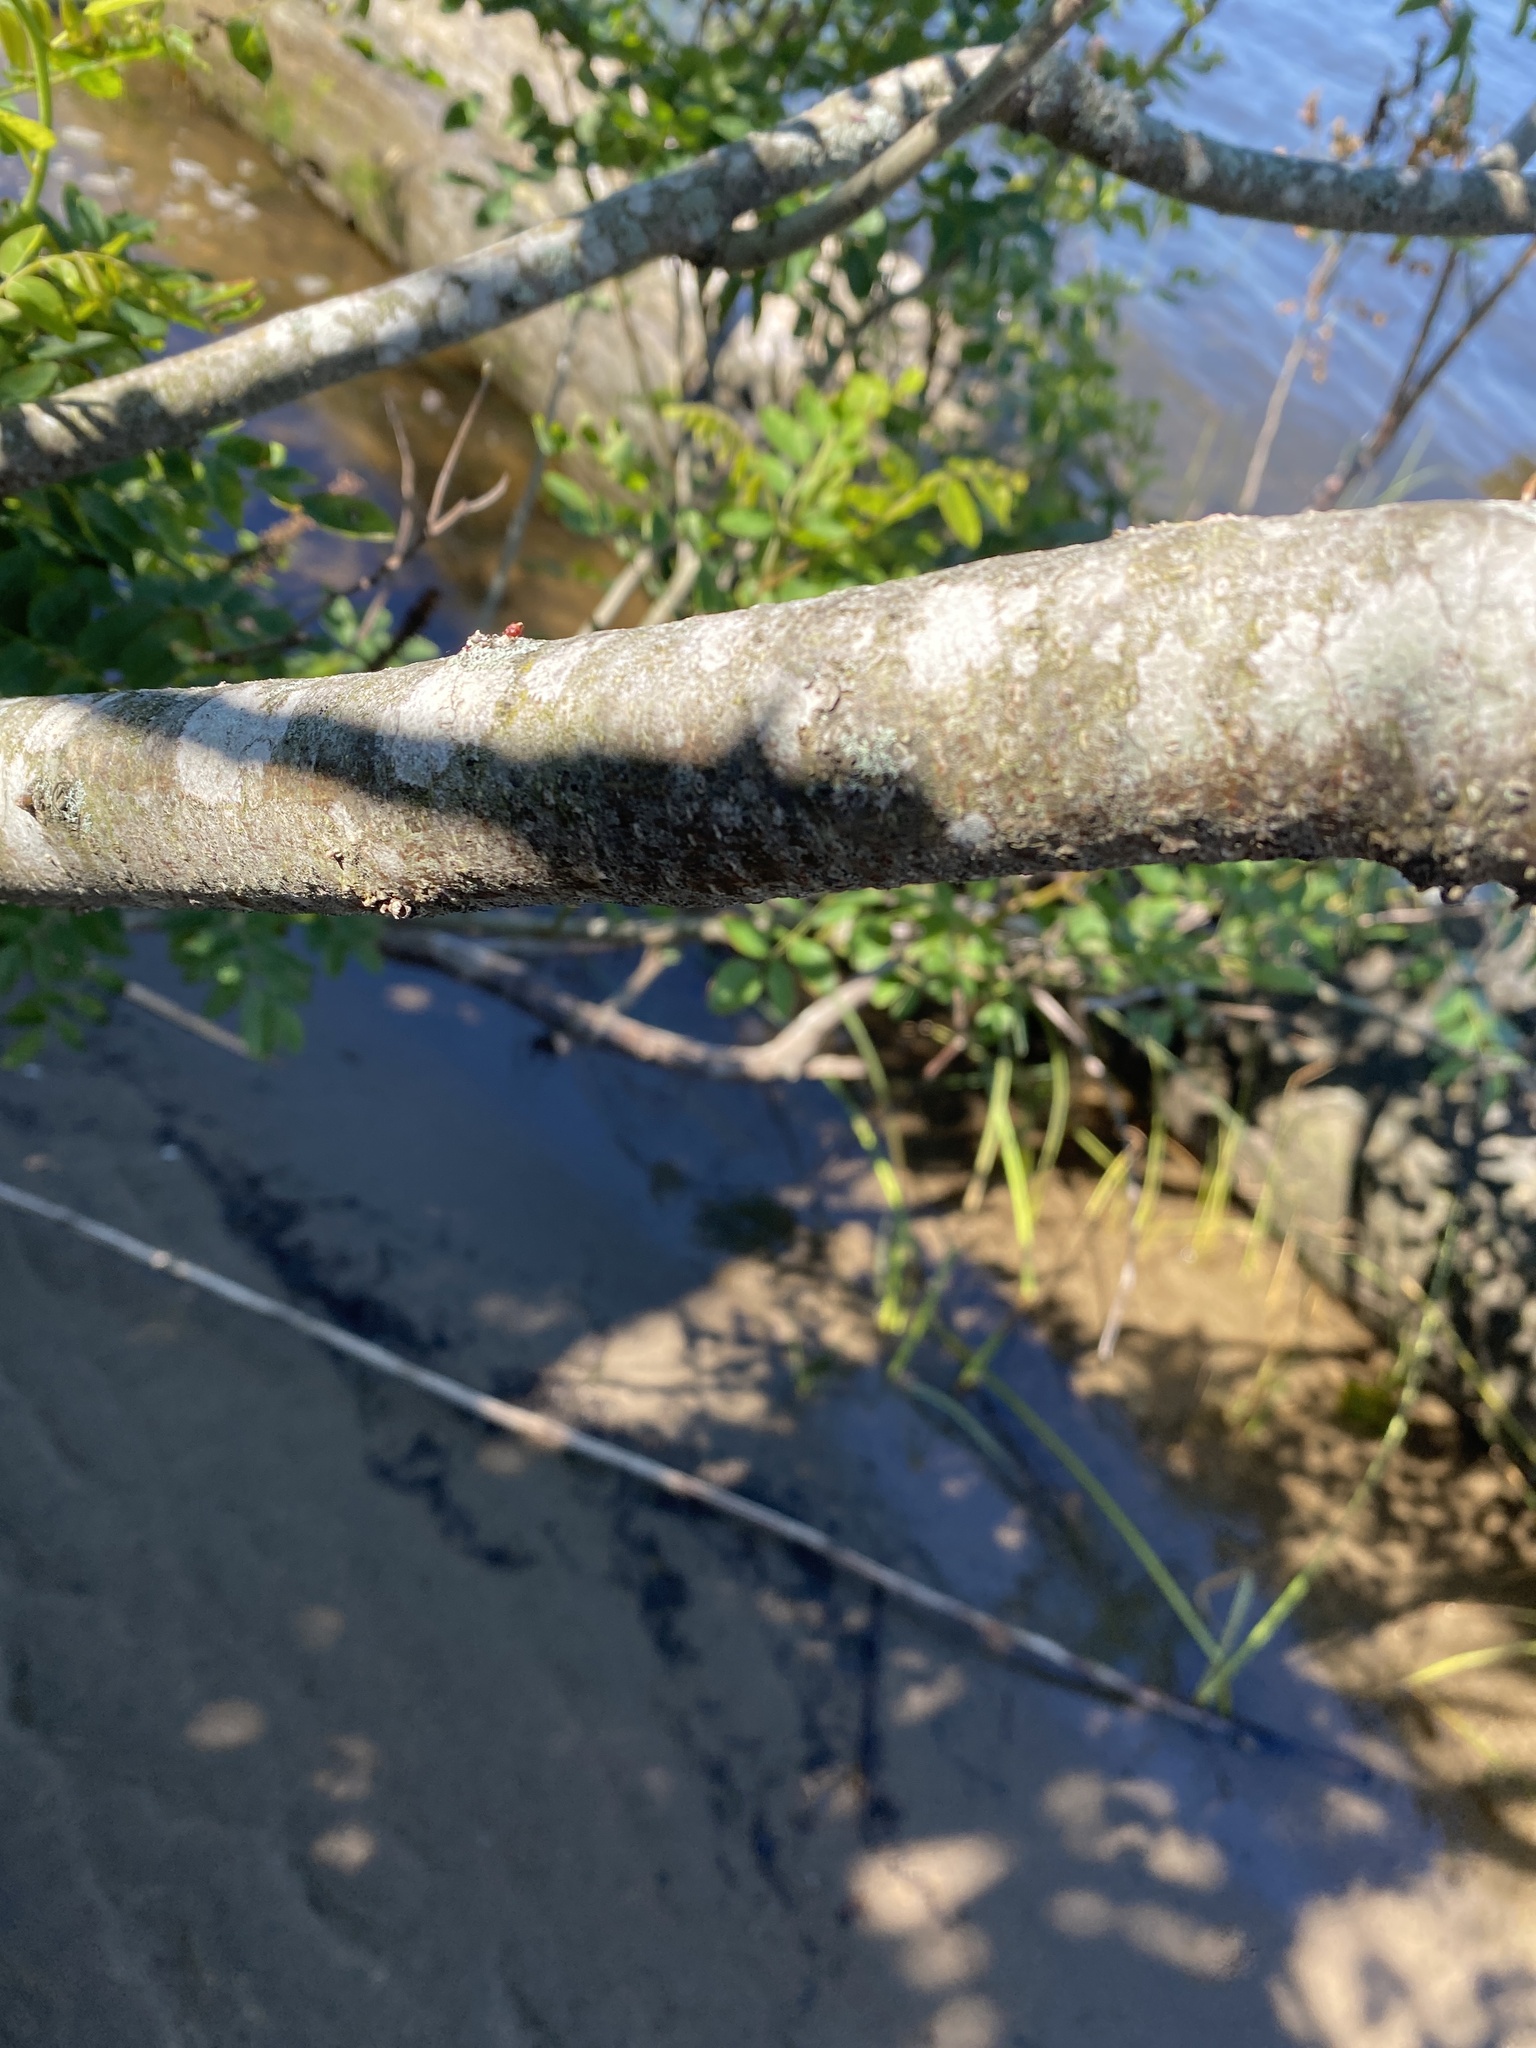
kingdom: Plantae
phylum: Tracheophyta
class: Magnoliopsida
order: Fabales
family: Fabaceae
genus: Amorpha
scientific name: Amorpha fruticosa
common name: False indigo
